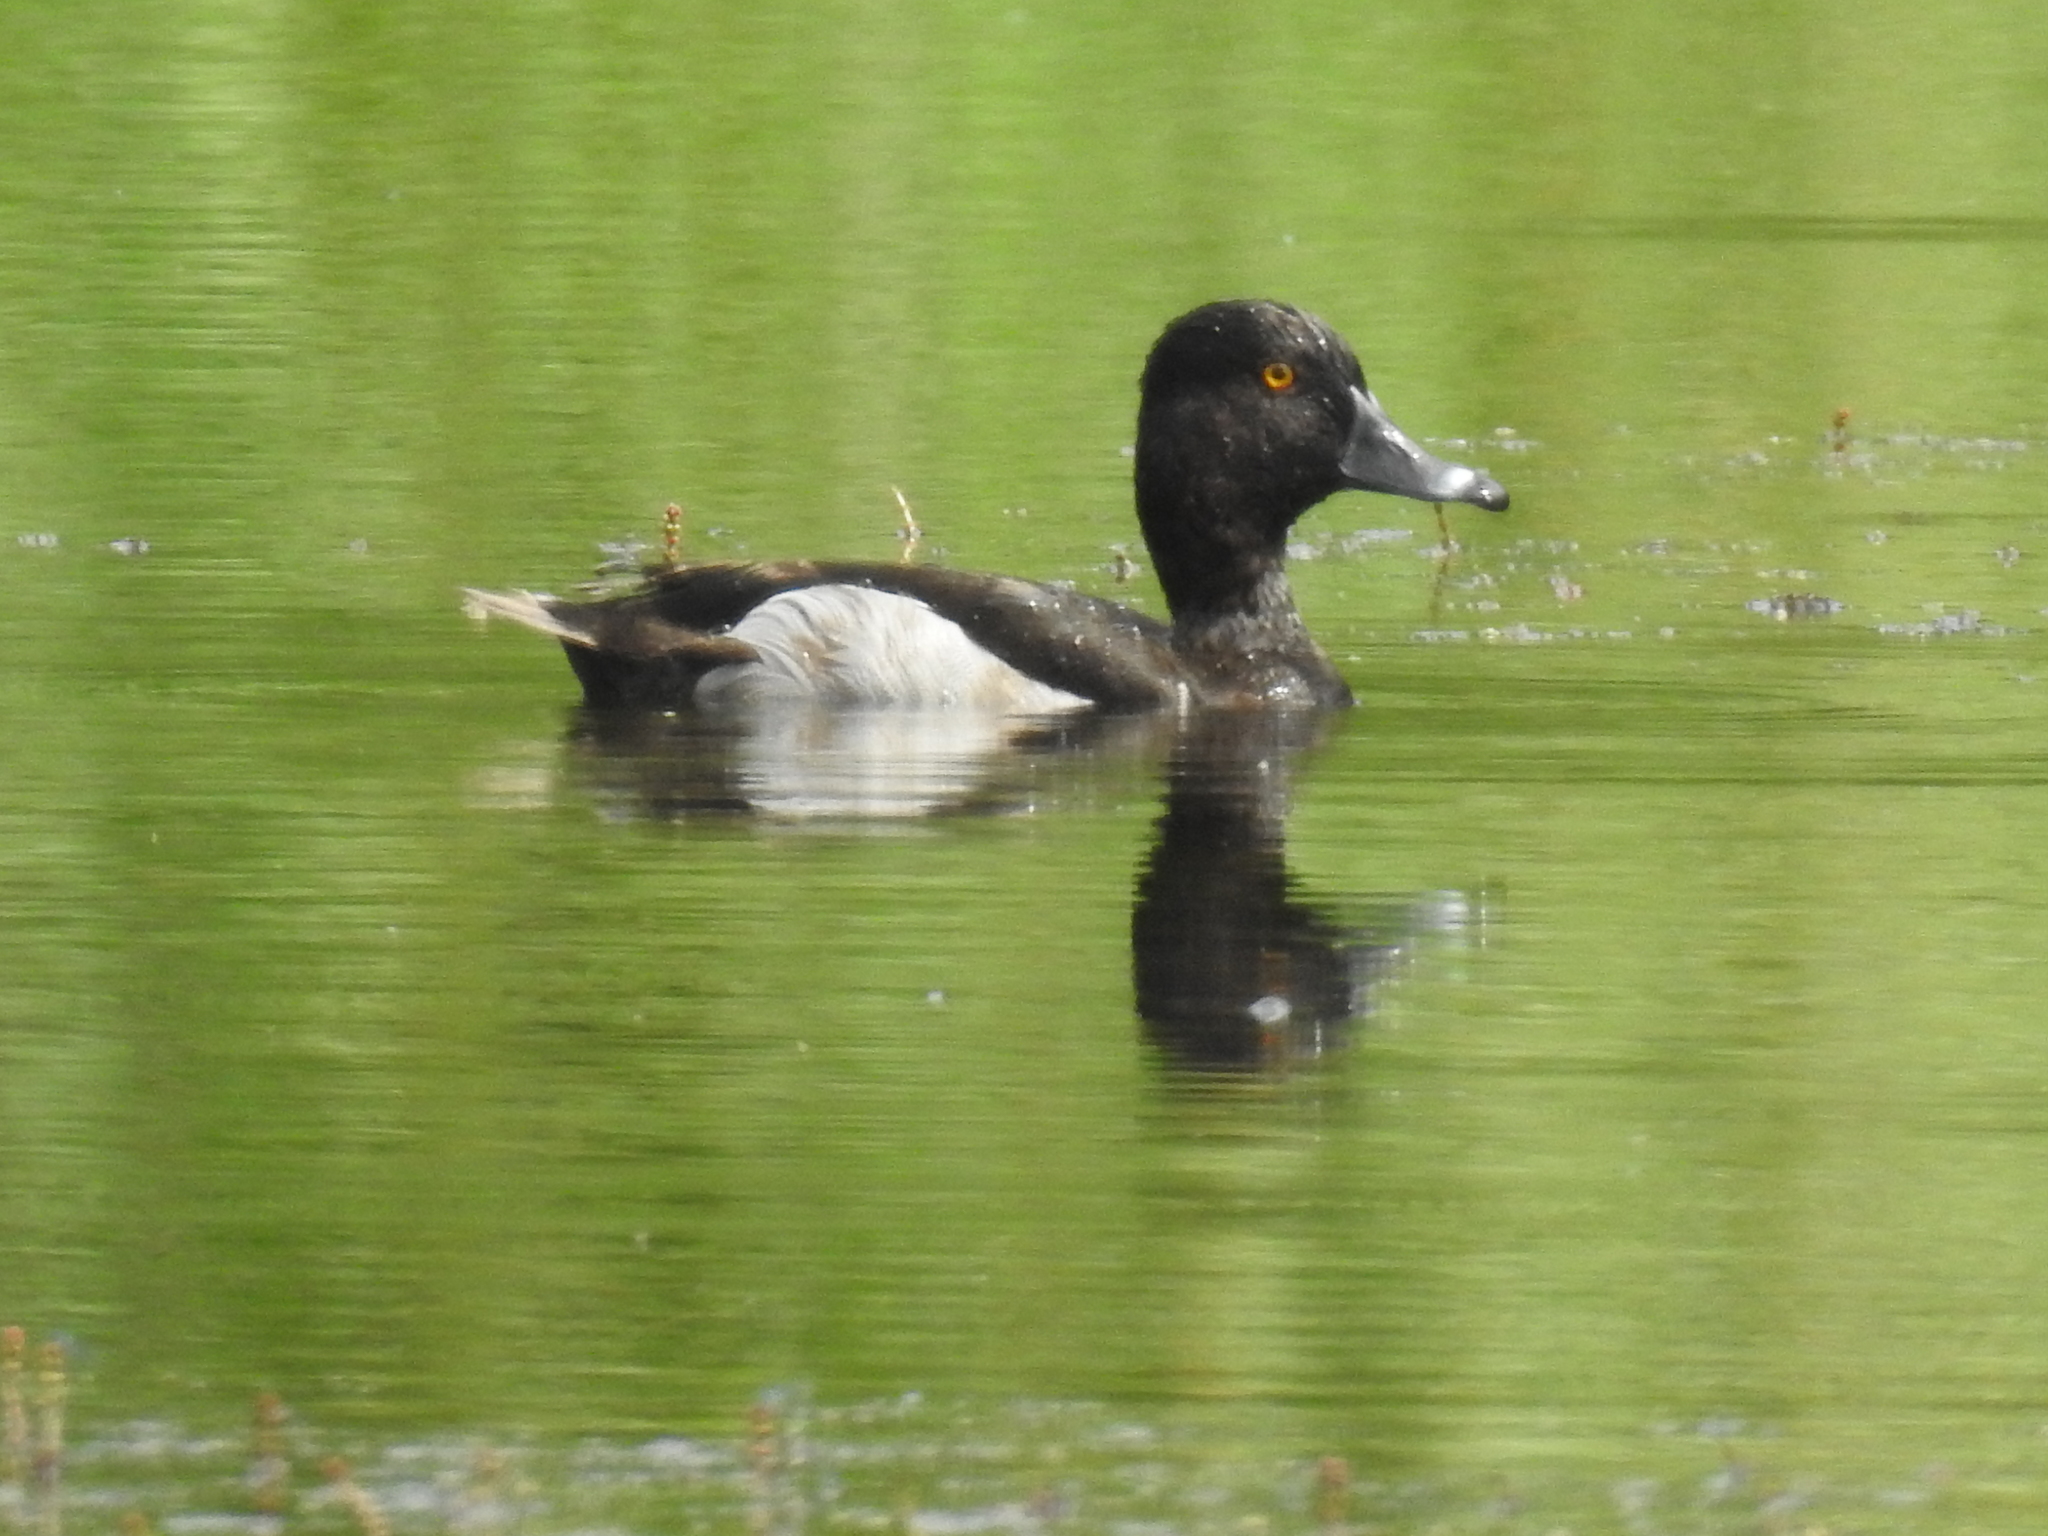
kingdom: Animalia
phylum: Chordata
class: Aves
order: Anseriformes
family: Anatidae
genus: Aythya
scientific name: Aythya collaris
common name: Ring-necked duck
